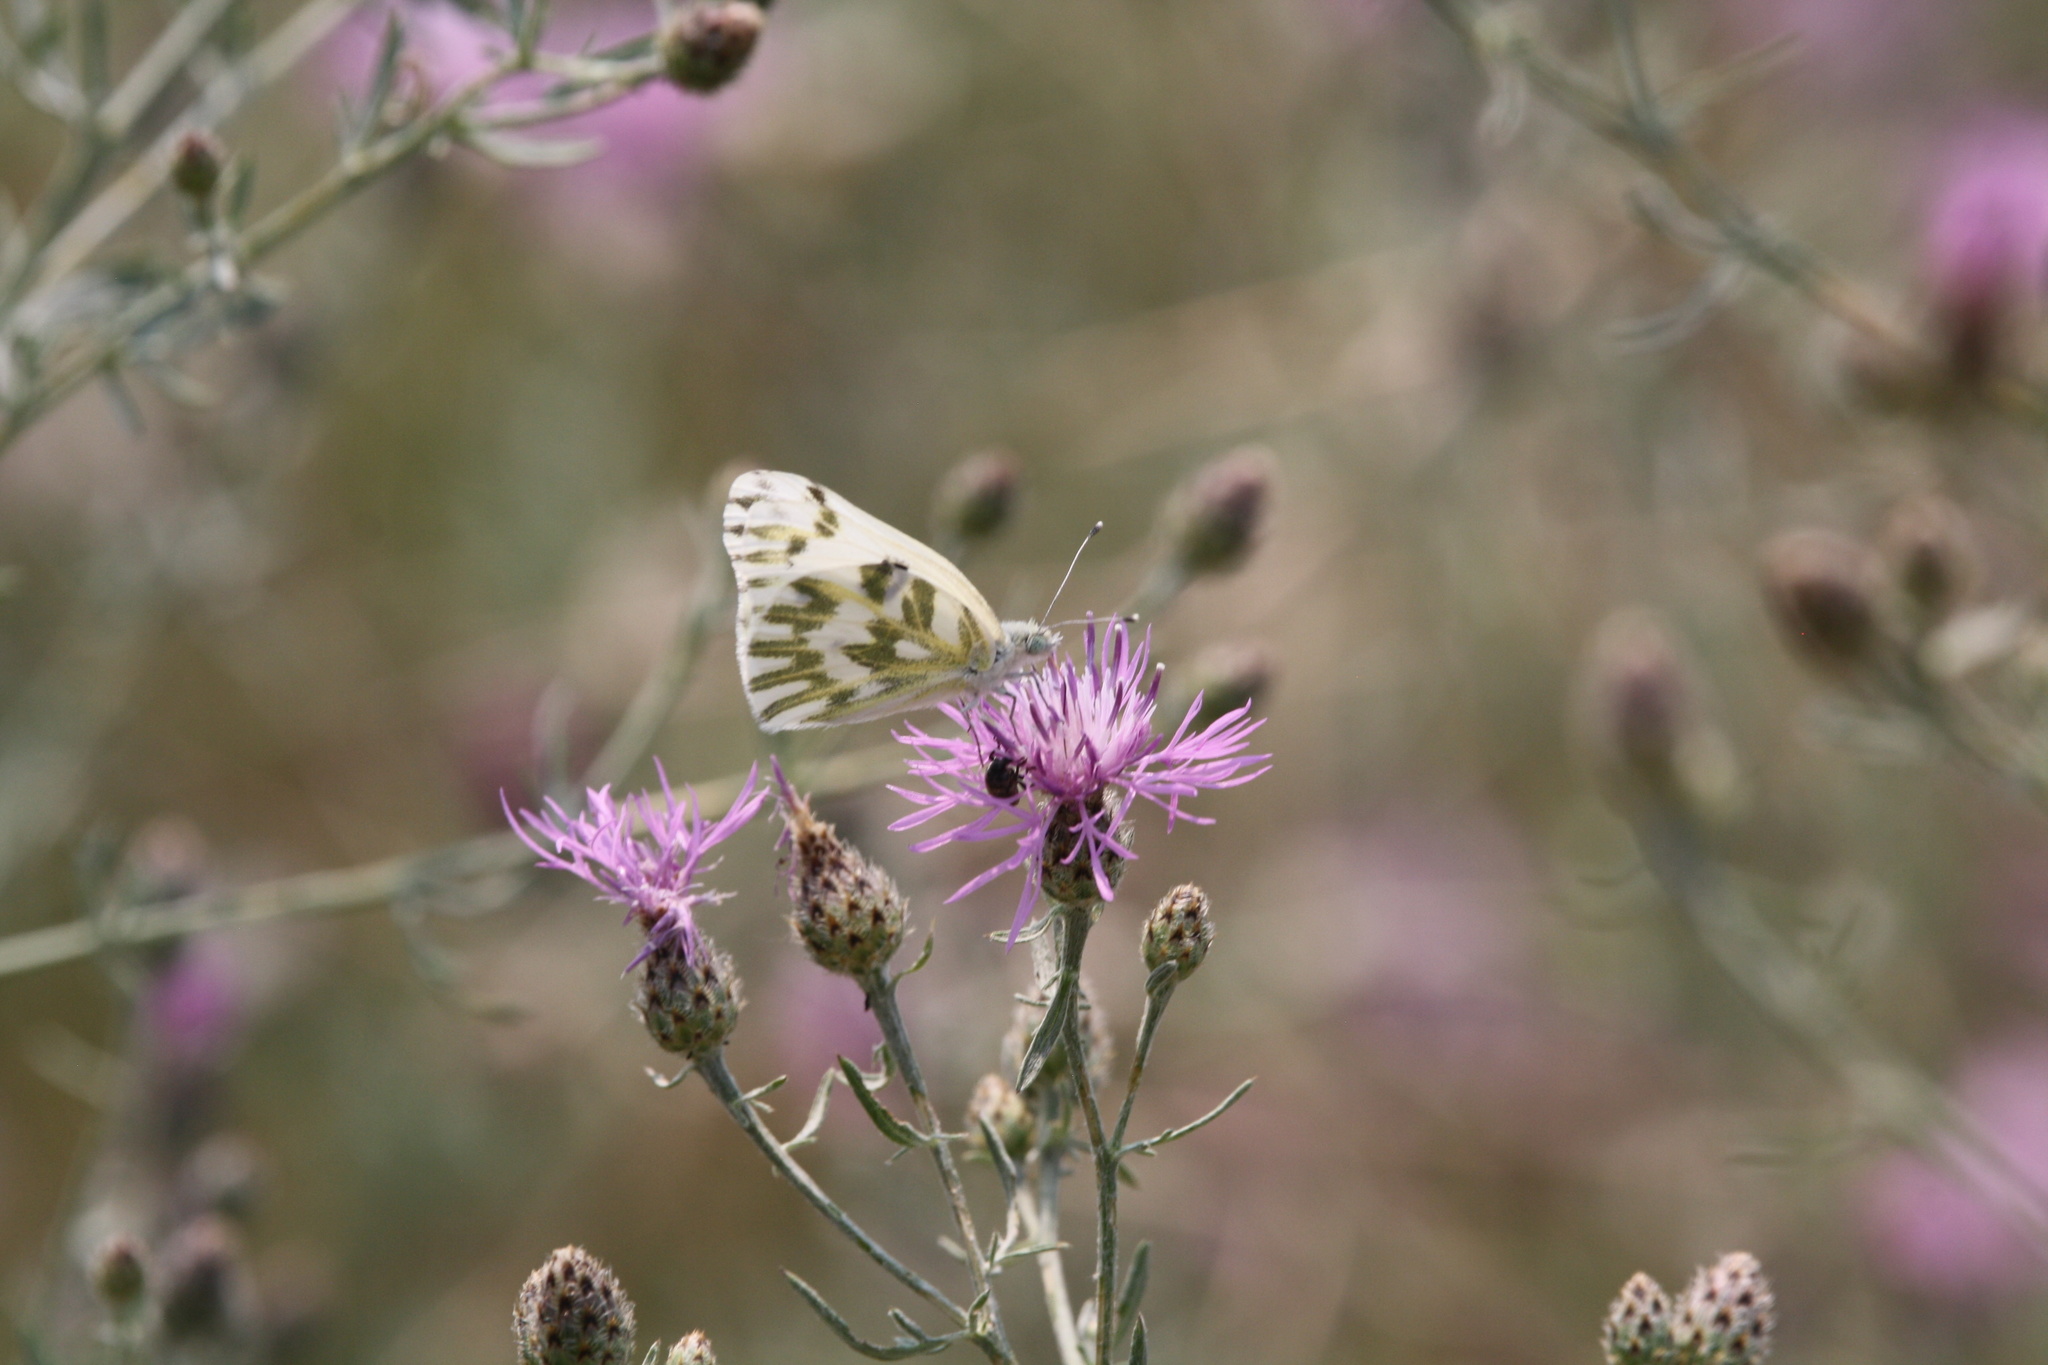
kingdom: Animalia
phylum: Arthropoda
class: Insecta
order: Lepidoptera
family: Pieridae
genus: Pontia
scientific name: Pontia beckerii
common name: Becker's white
